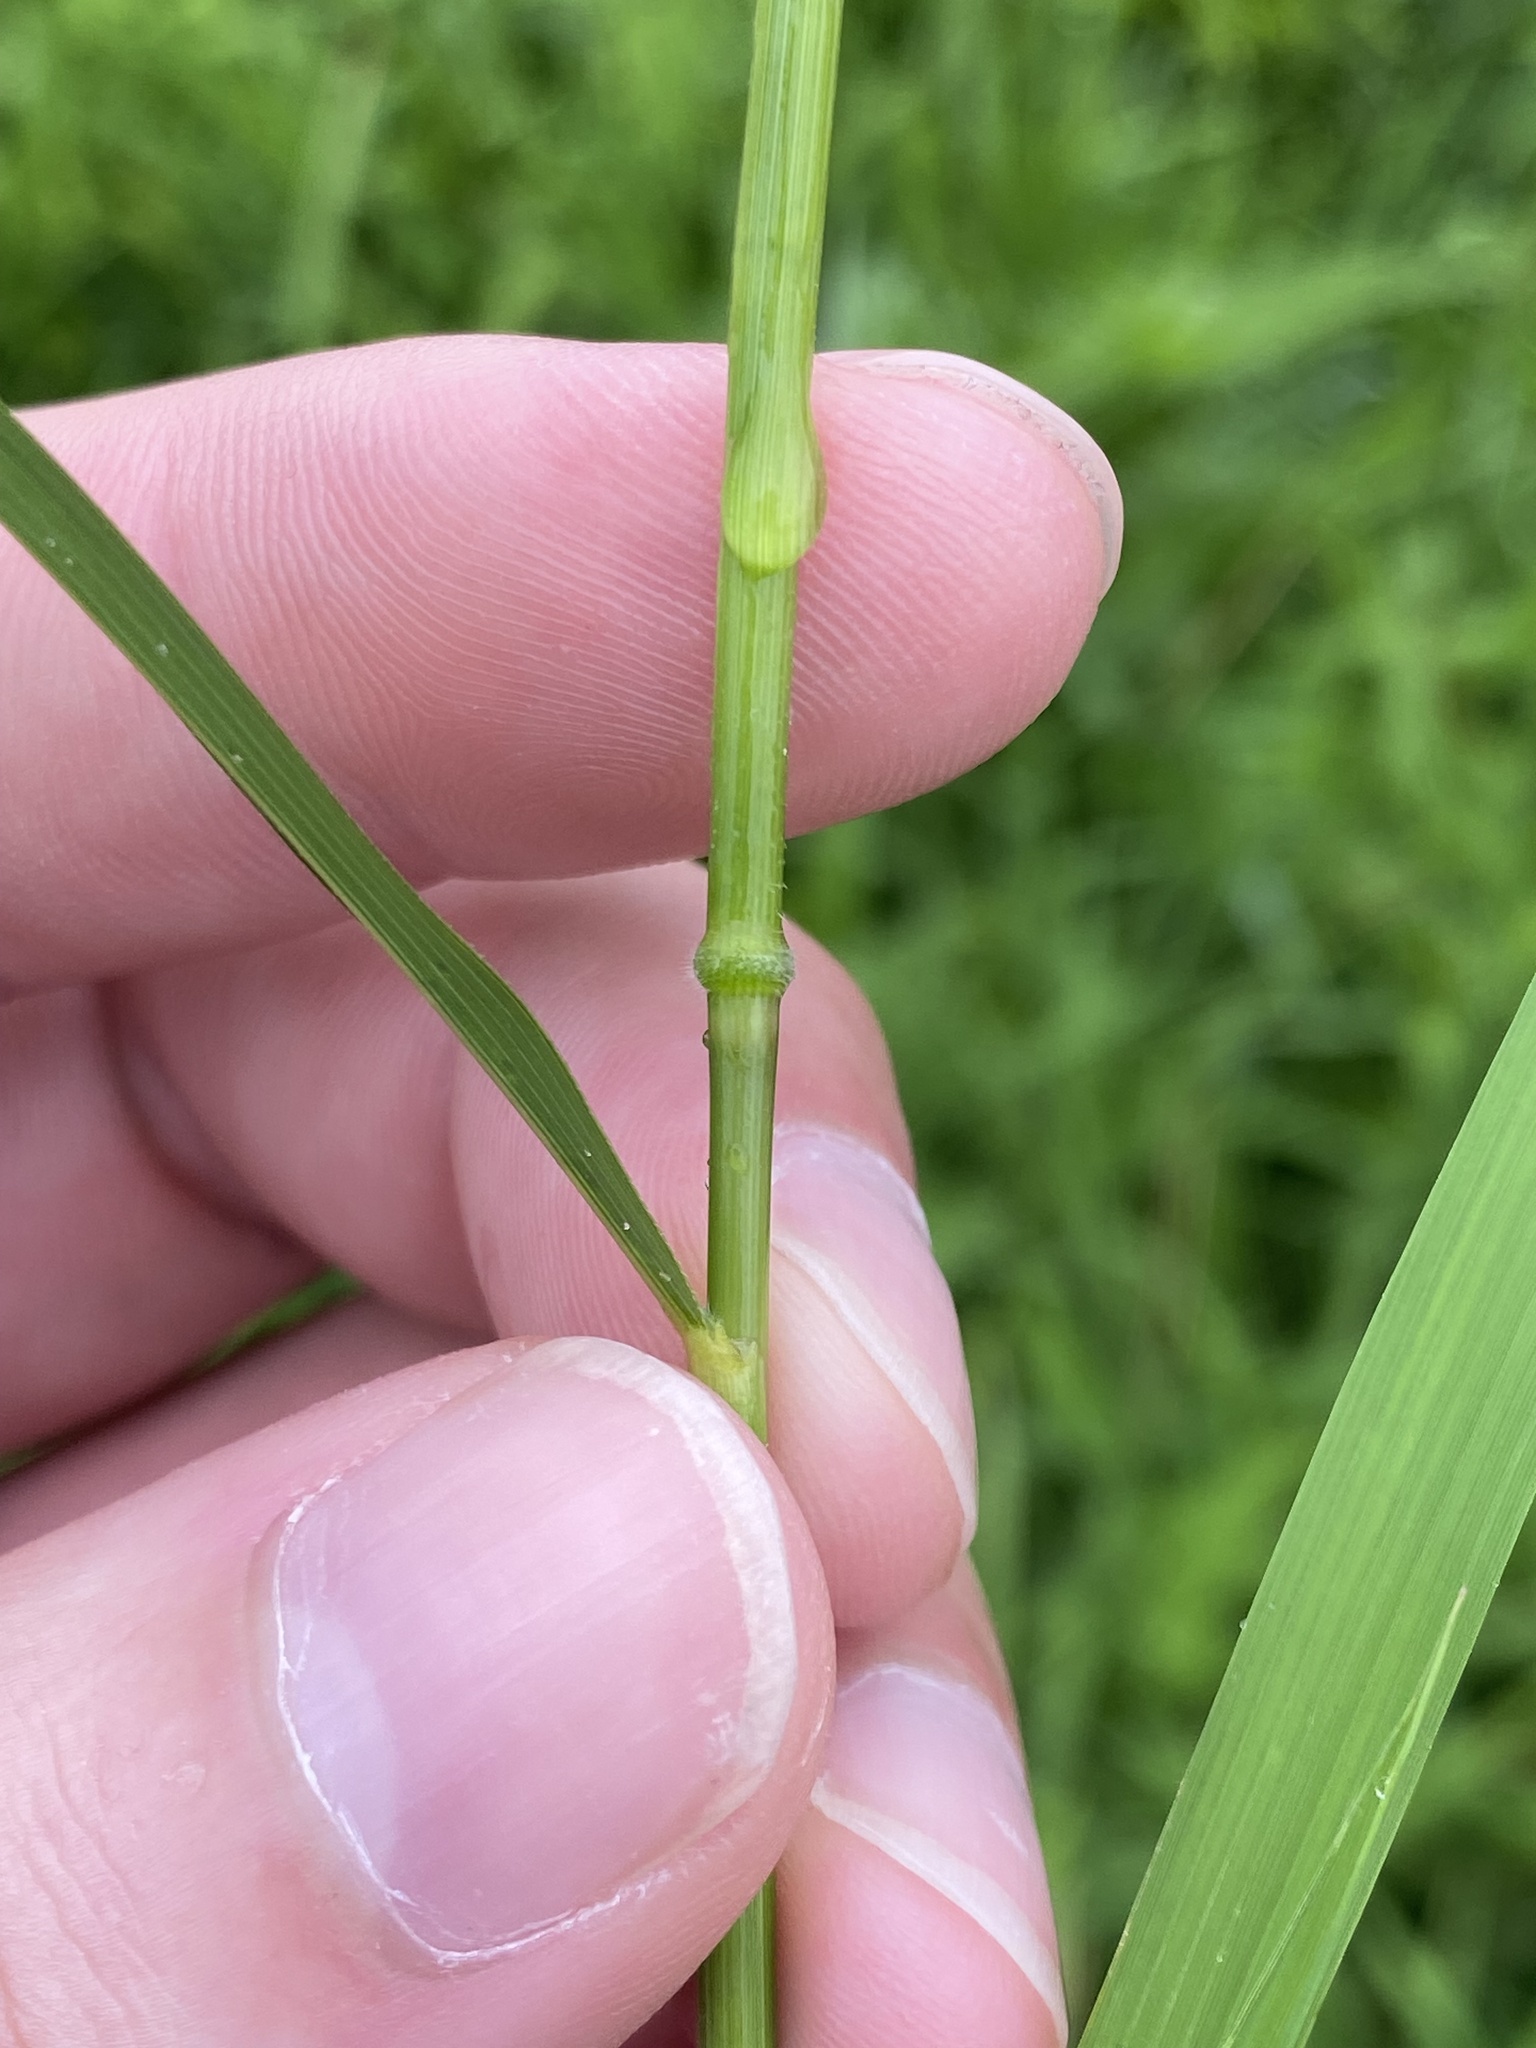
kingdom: Plantae
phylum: Tracheophyta
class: Liliopsida
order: Poales
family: Poaceae
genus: Leersia
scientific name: Leersia oryzoides
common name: Cut-grass
